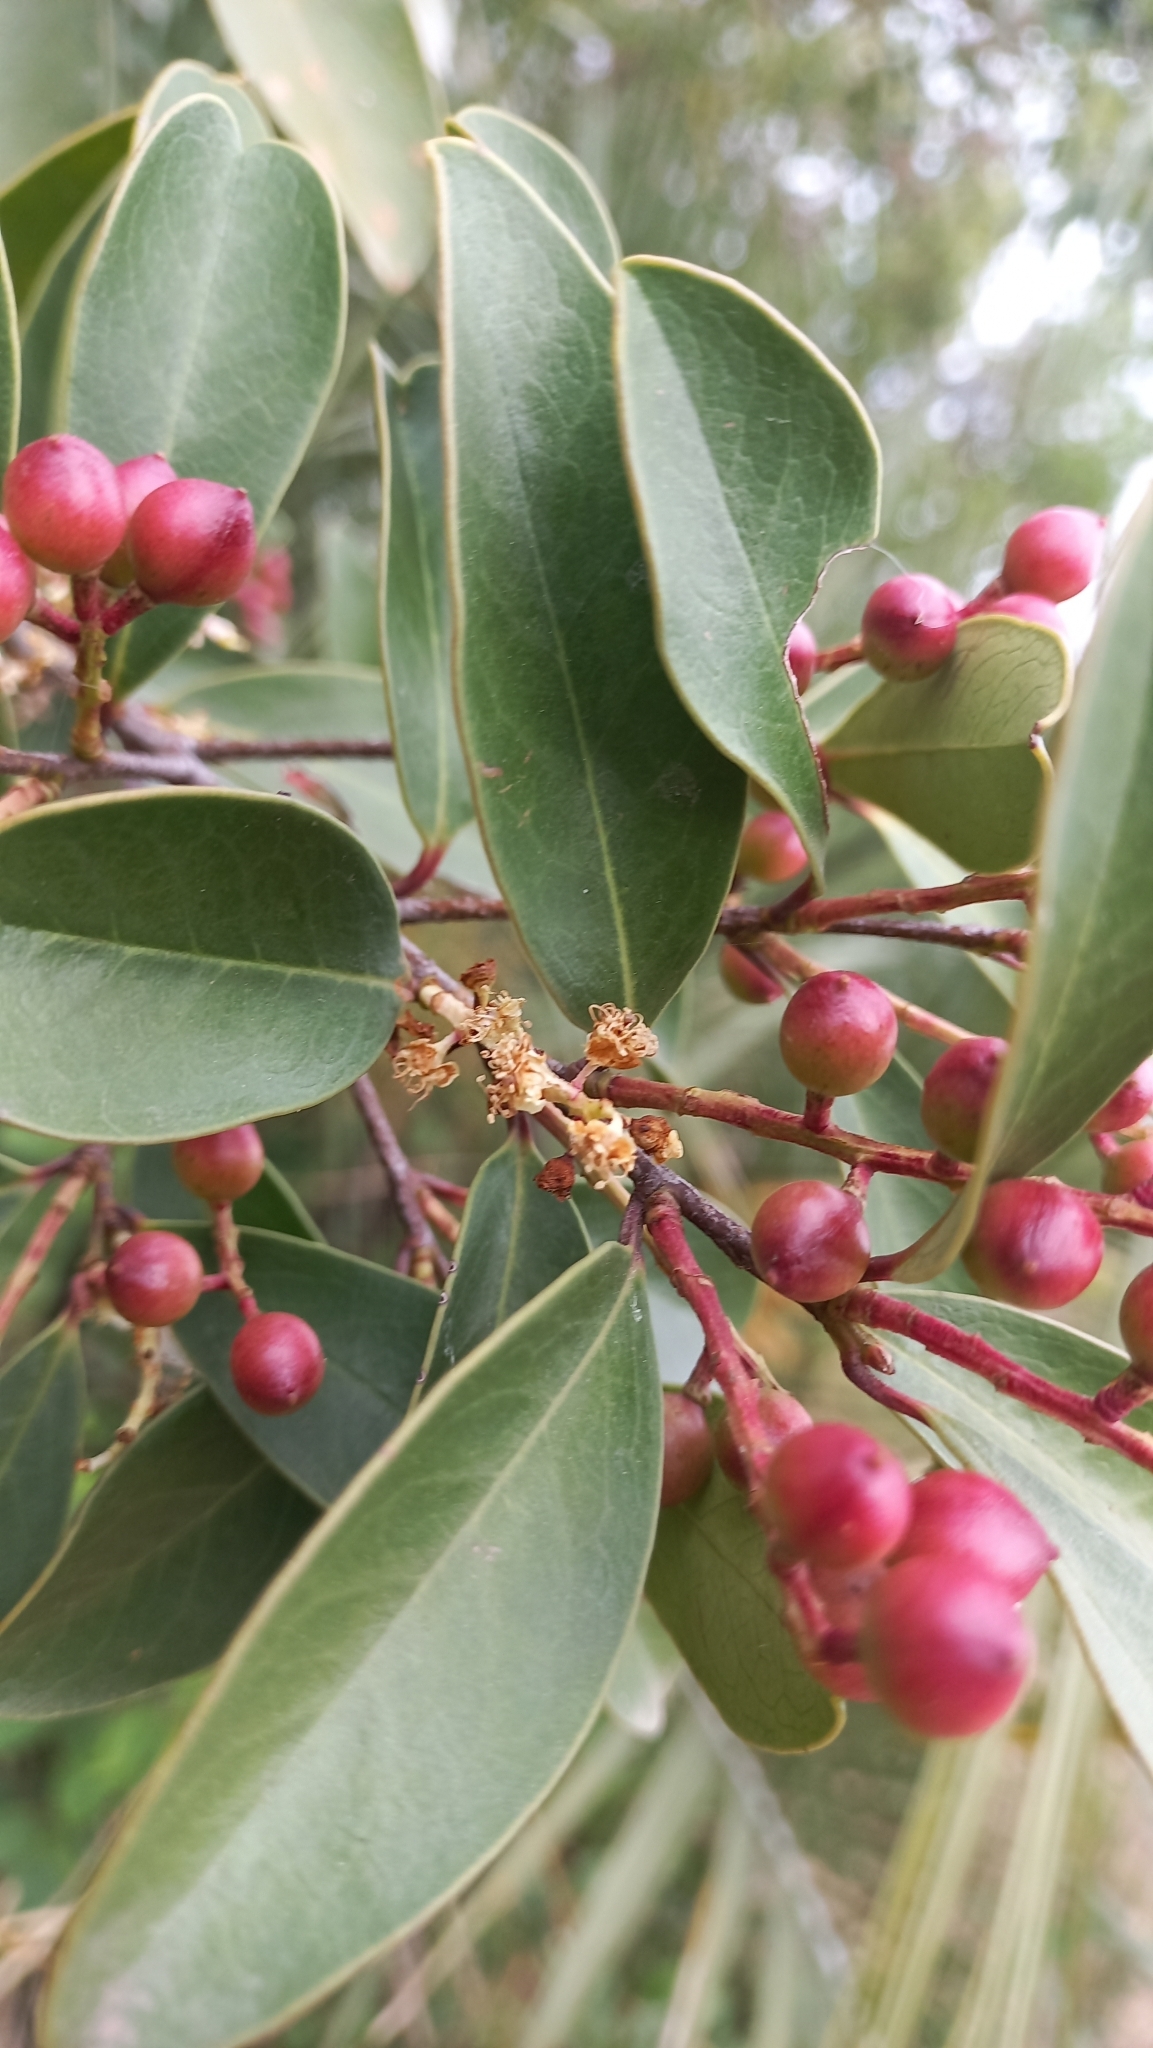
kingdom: Plantae
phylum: Tracheophyta
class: Magnoliopsida
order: Rosales
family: Rosaceae
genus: Prunus
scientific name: Prunus brasiliensis
